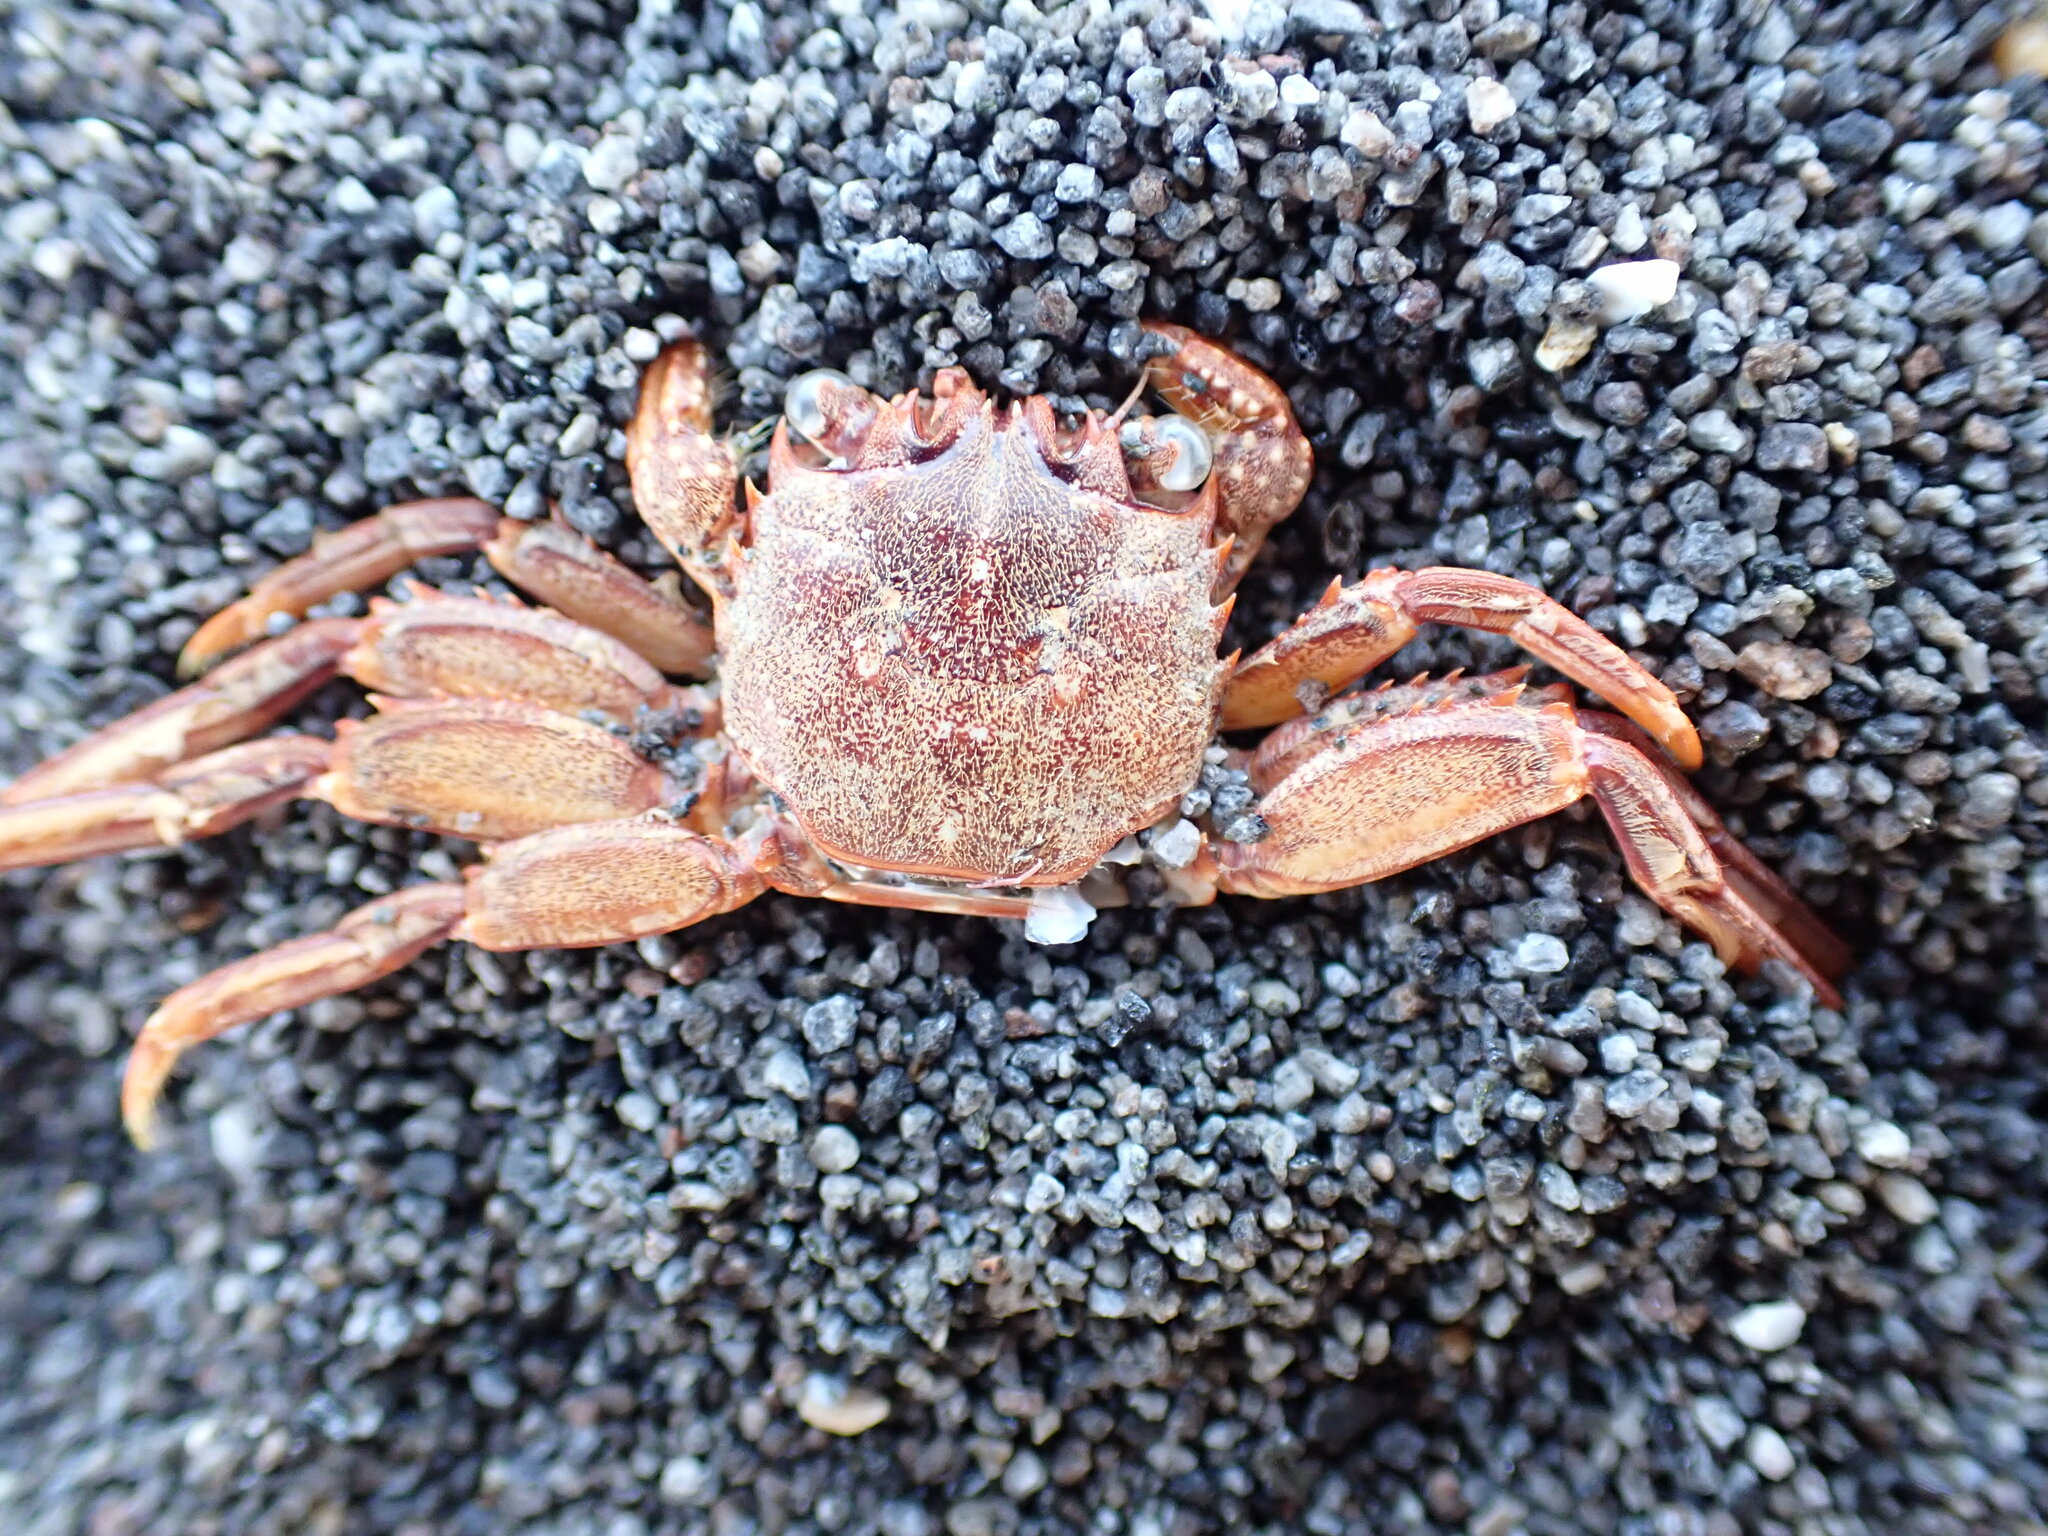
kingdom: Animalia
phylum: Arthropoda
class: Malacostraca
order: Decapoda
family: Plagusiidae
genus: Guinusia
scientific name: Guinusia chabrus
